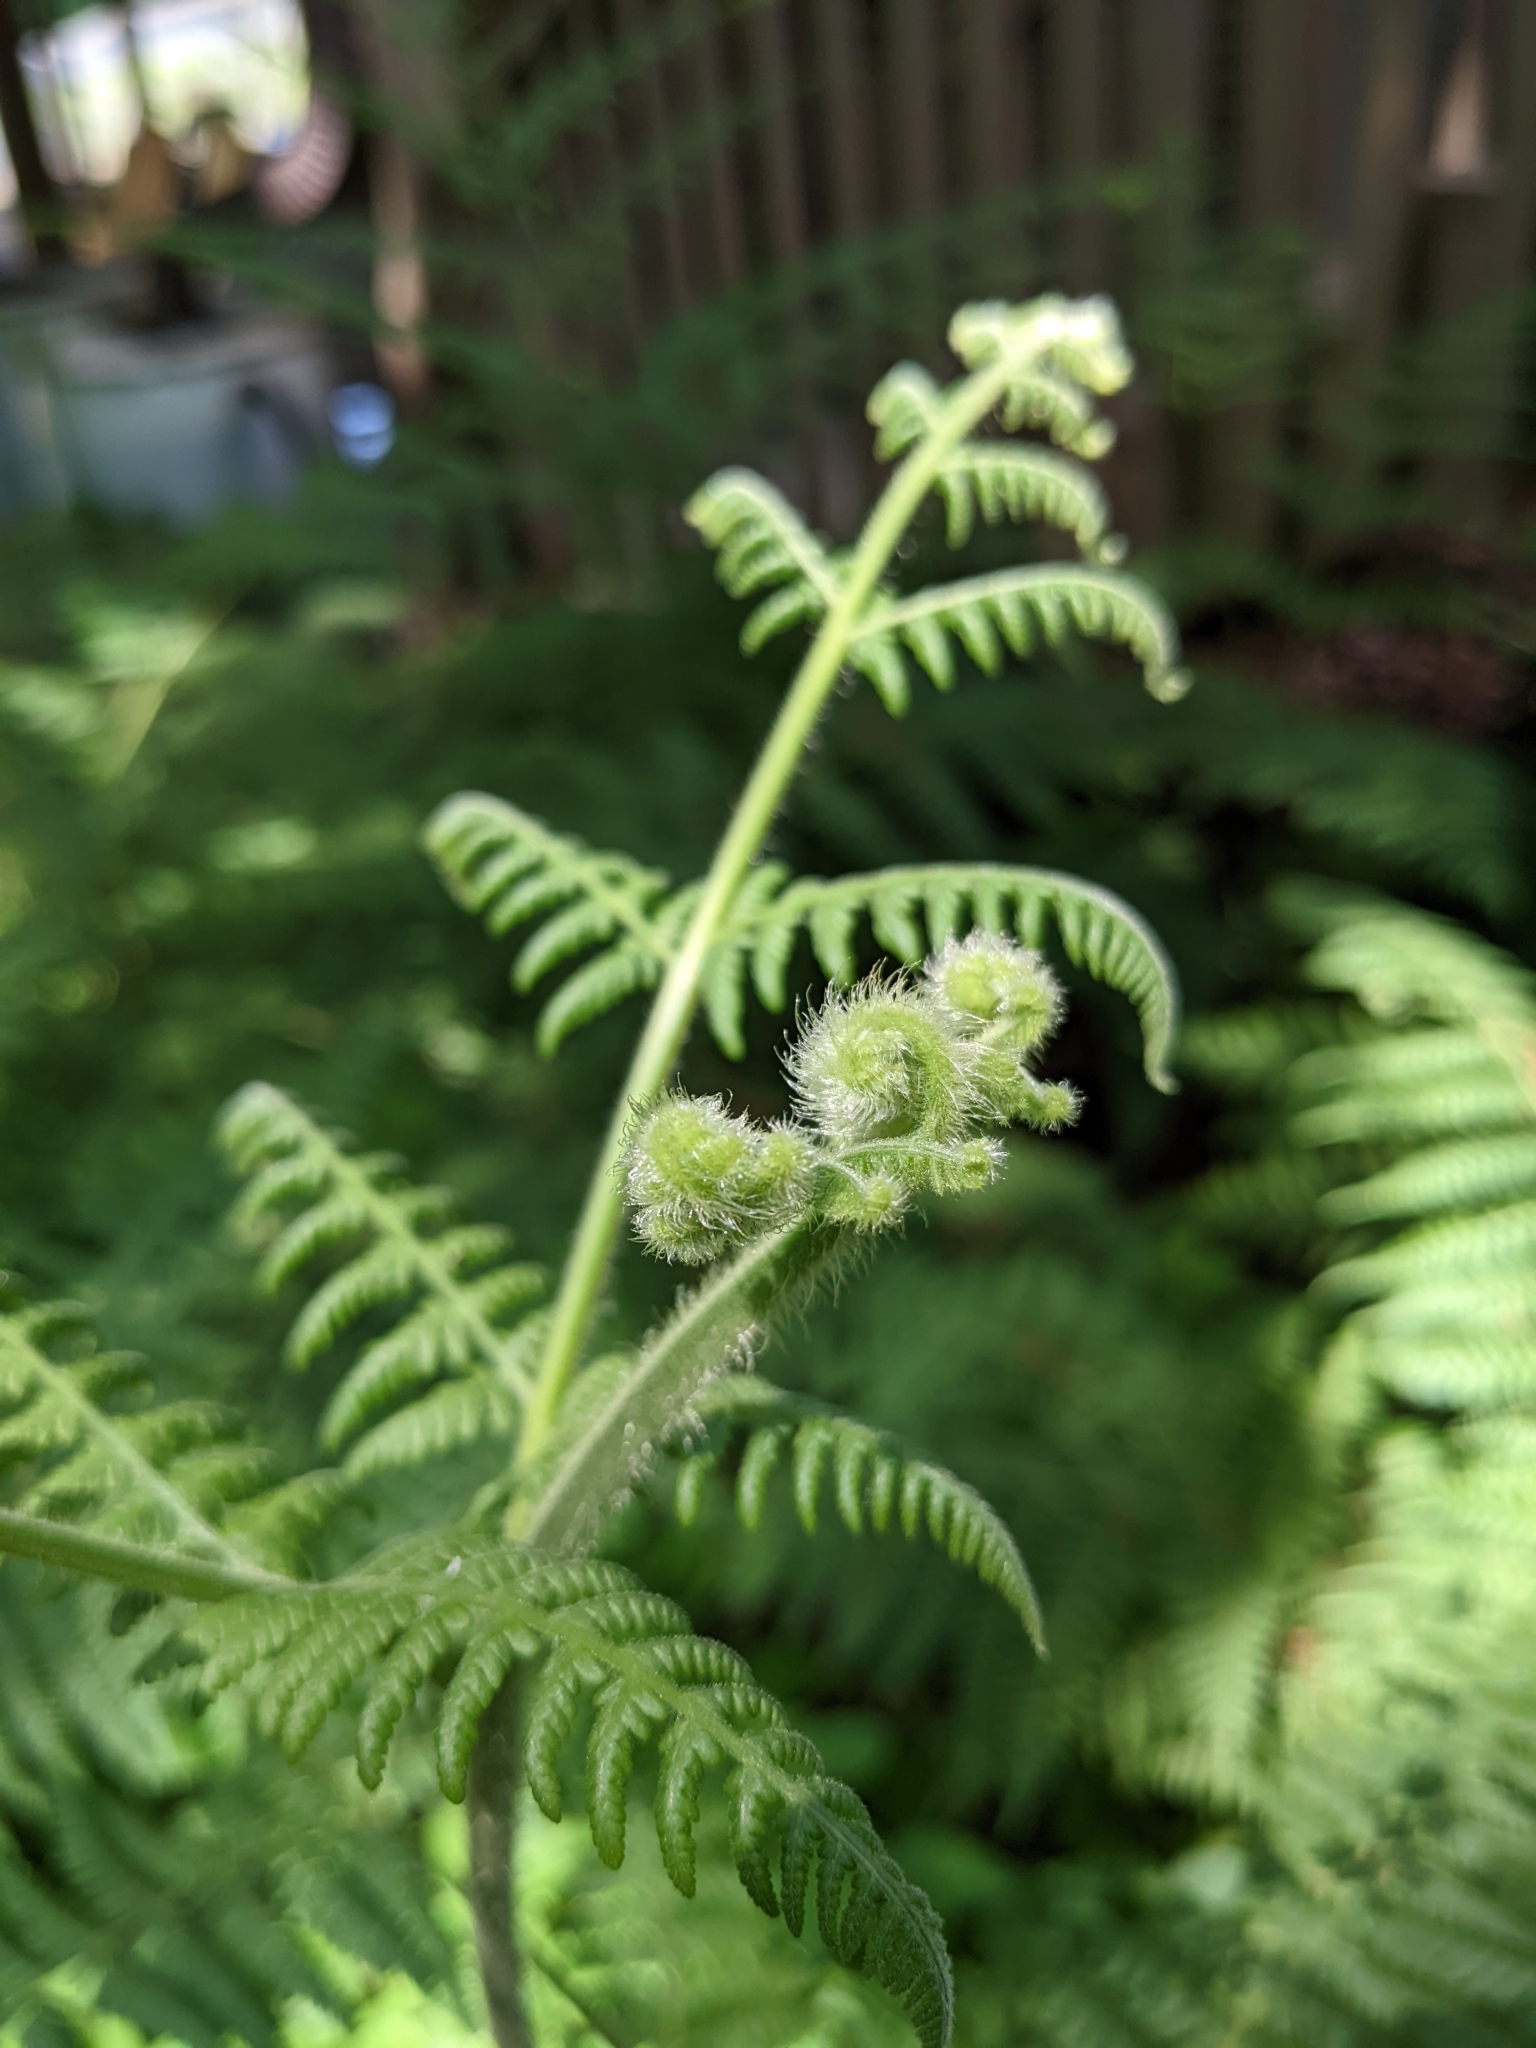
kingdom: Plantae
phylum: Tracheophyta
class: Polypodiopsida
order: Polypodiales
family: Dennstaedtiaceae
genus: Pteridium
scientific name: Pteridium aquilinum
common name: Bracken
